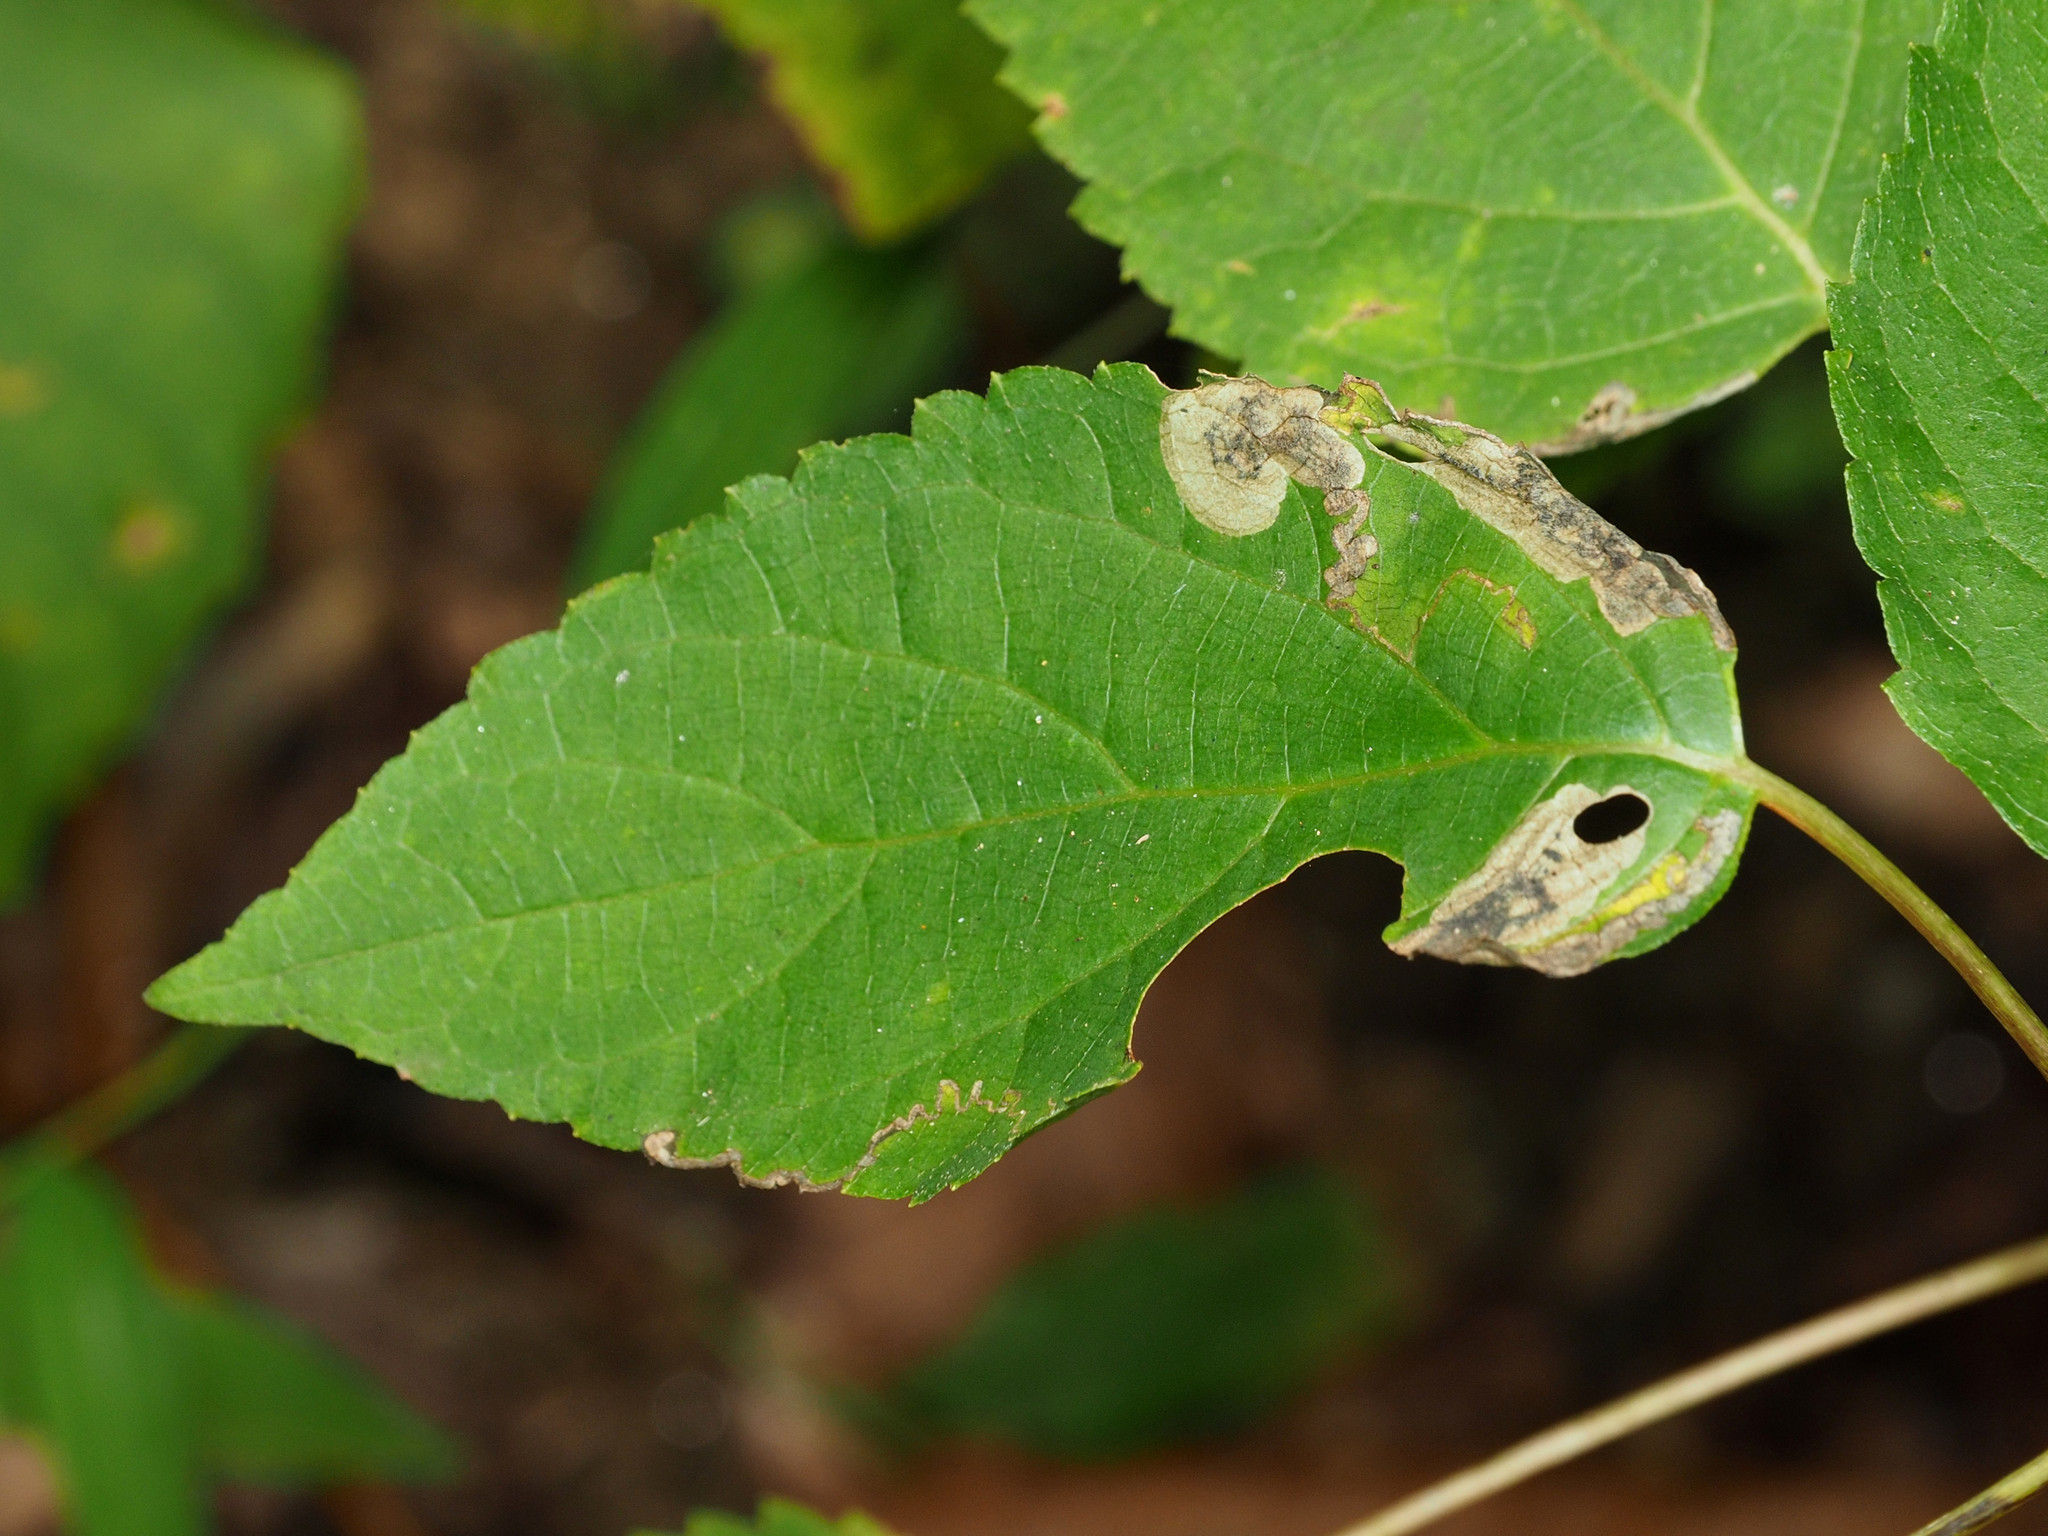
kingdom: Animalia
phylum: Arthropoda
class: Insecta
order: Lepidoptera
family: Heliozelidae
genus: Aspilanta
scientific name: Aspilanta hydrangaeella
